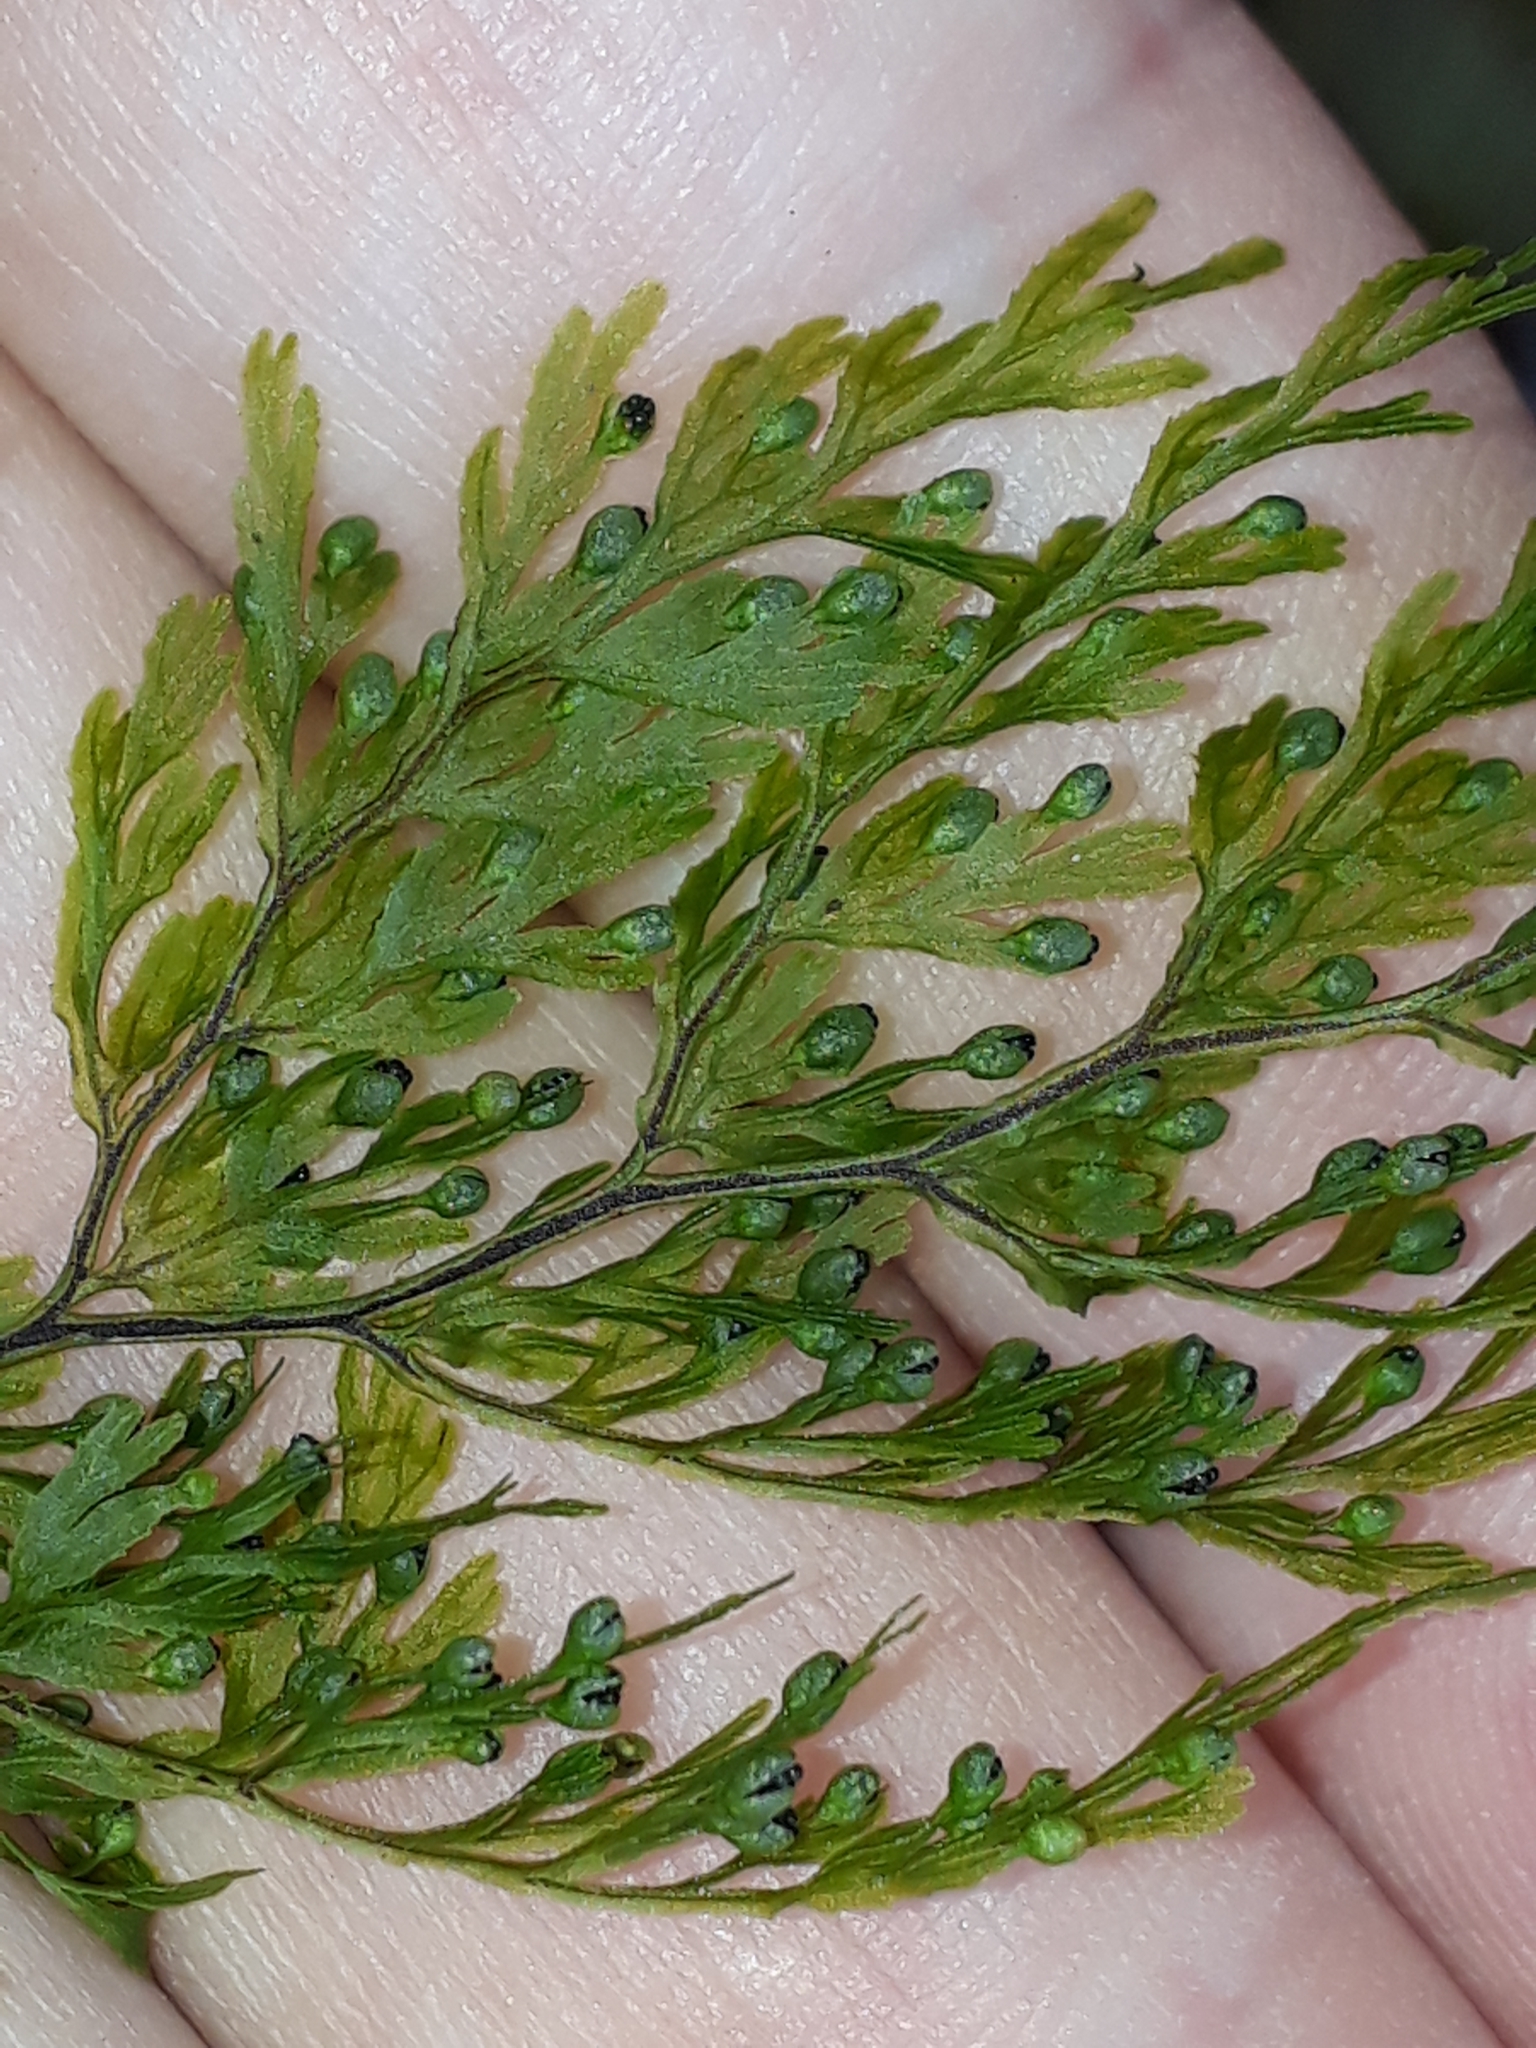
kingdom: Plantae
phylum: Tracheophyta
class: Polypodiopsida
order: Hymenophyllales
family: Hymenophyllaceae
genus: Hymenophyllum
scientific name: Hymenophyllum bivalve
